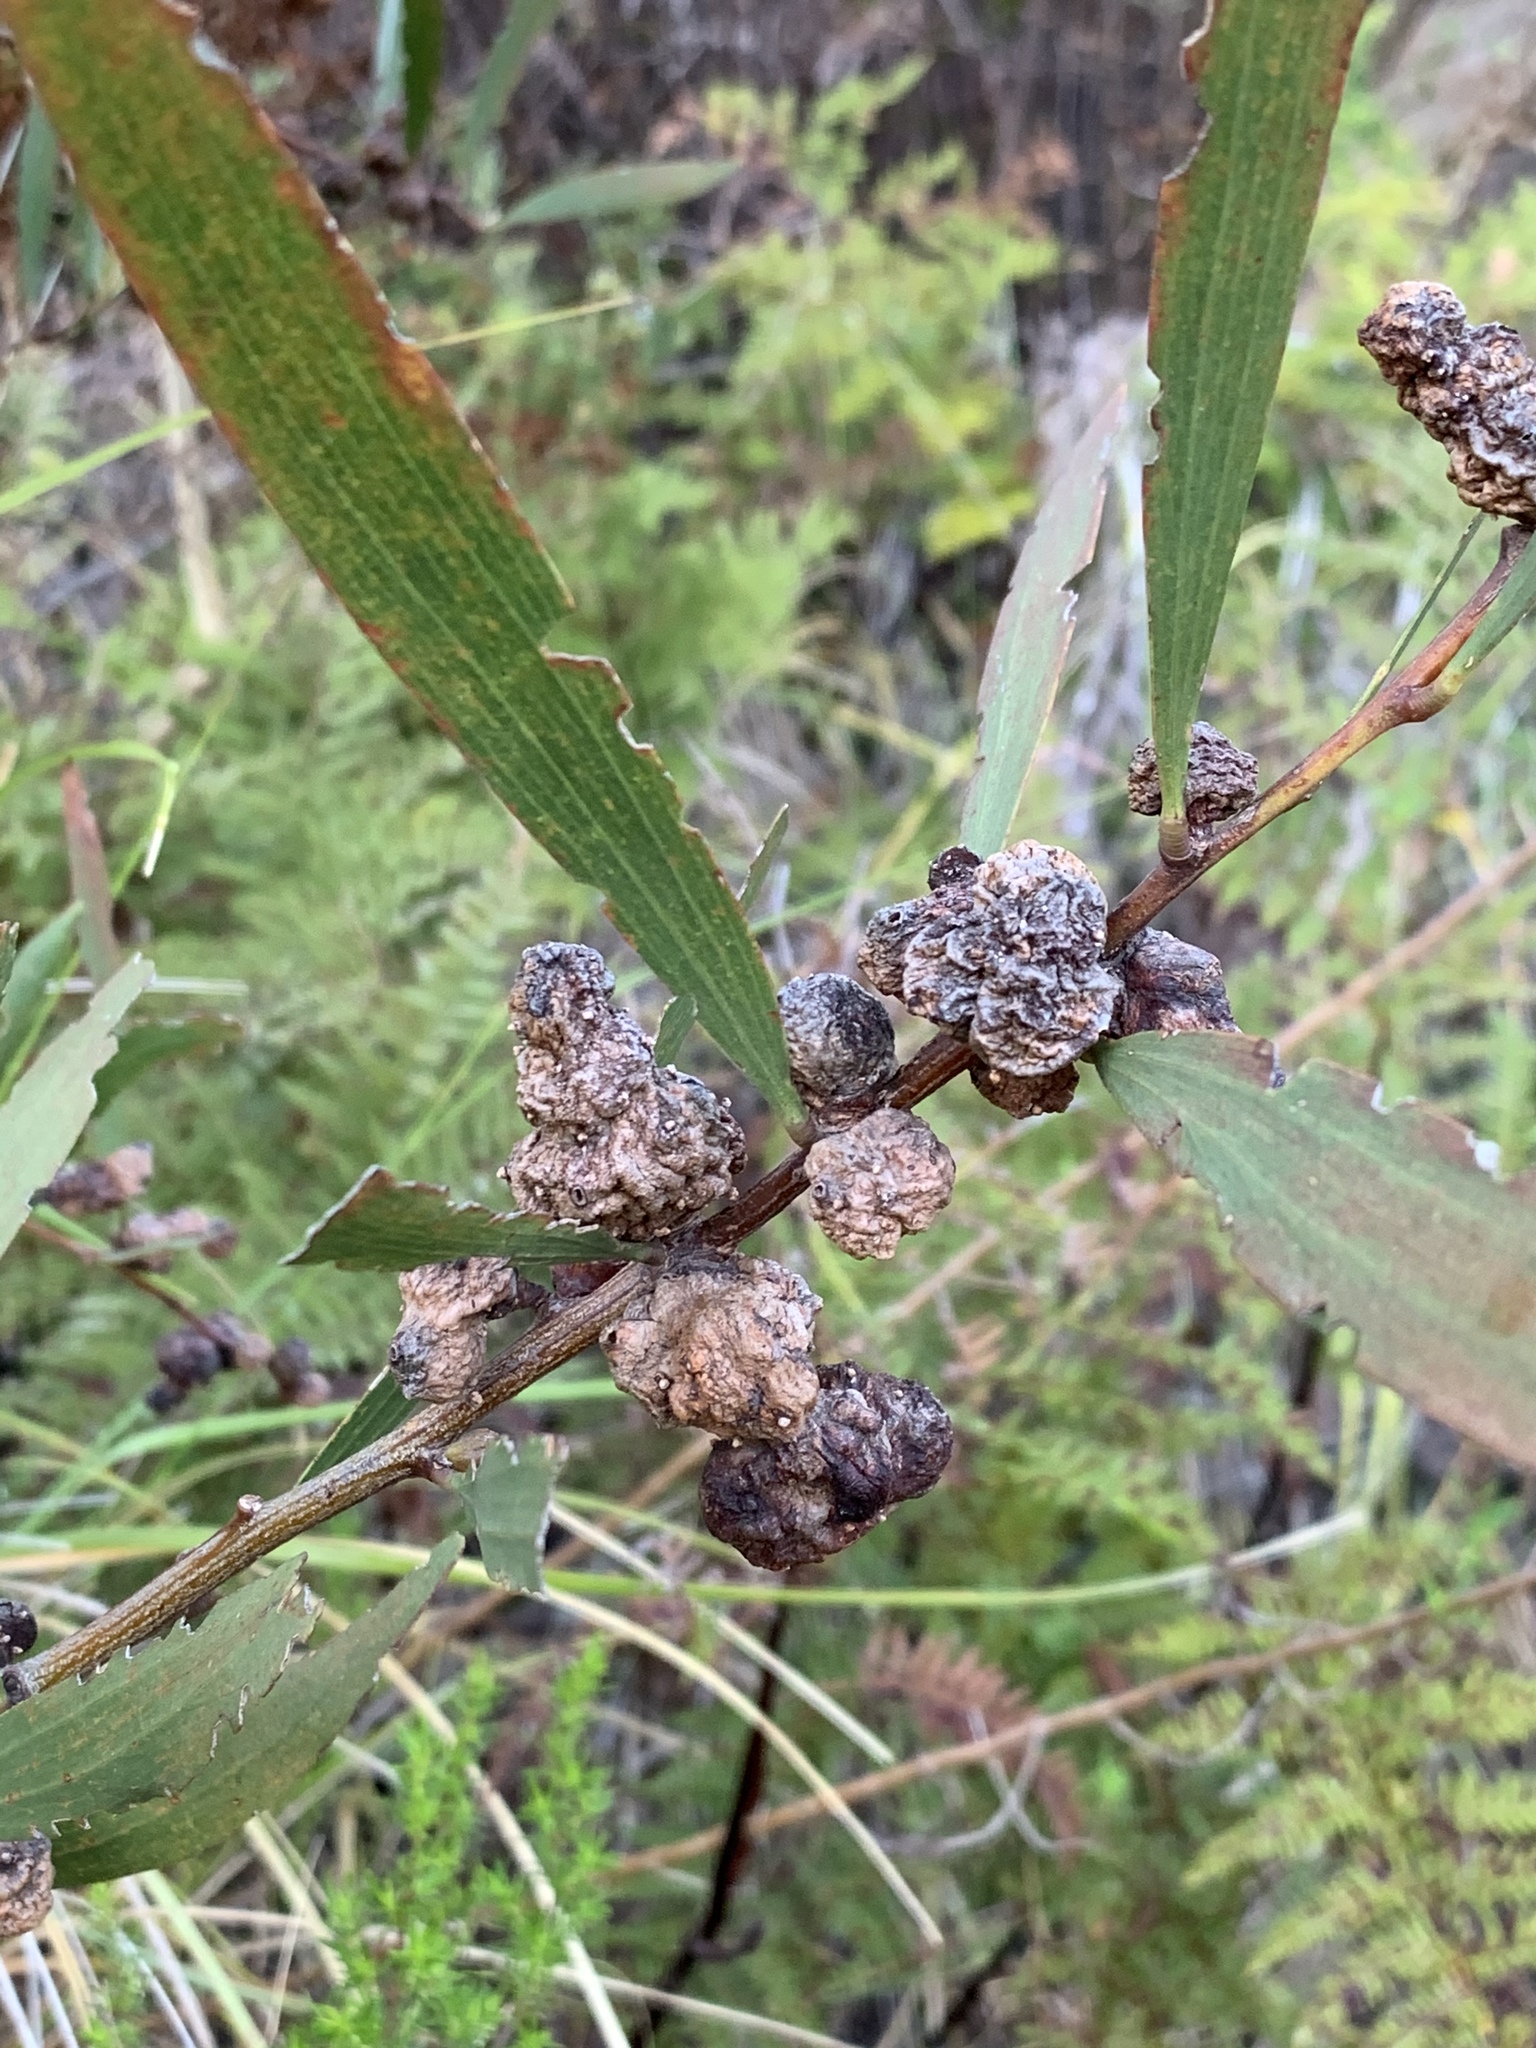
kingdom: Animalia
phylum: Arthropoda
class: Insecta
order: Hymenoptera
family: Pteromalidae
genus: Trichilogaster
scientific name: Trichilogaster acaciaelongifoliae
